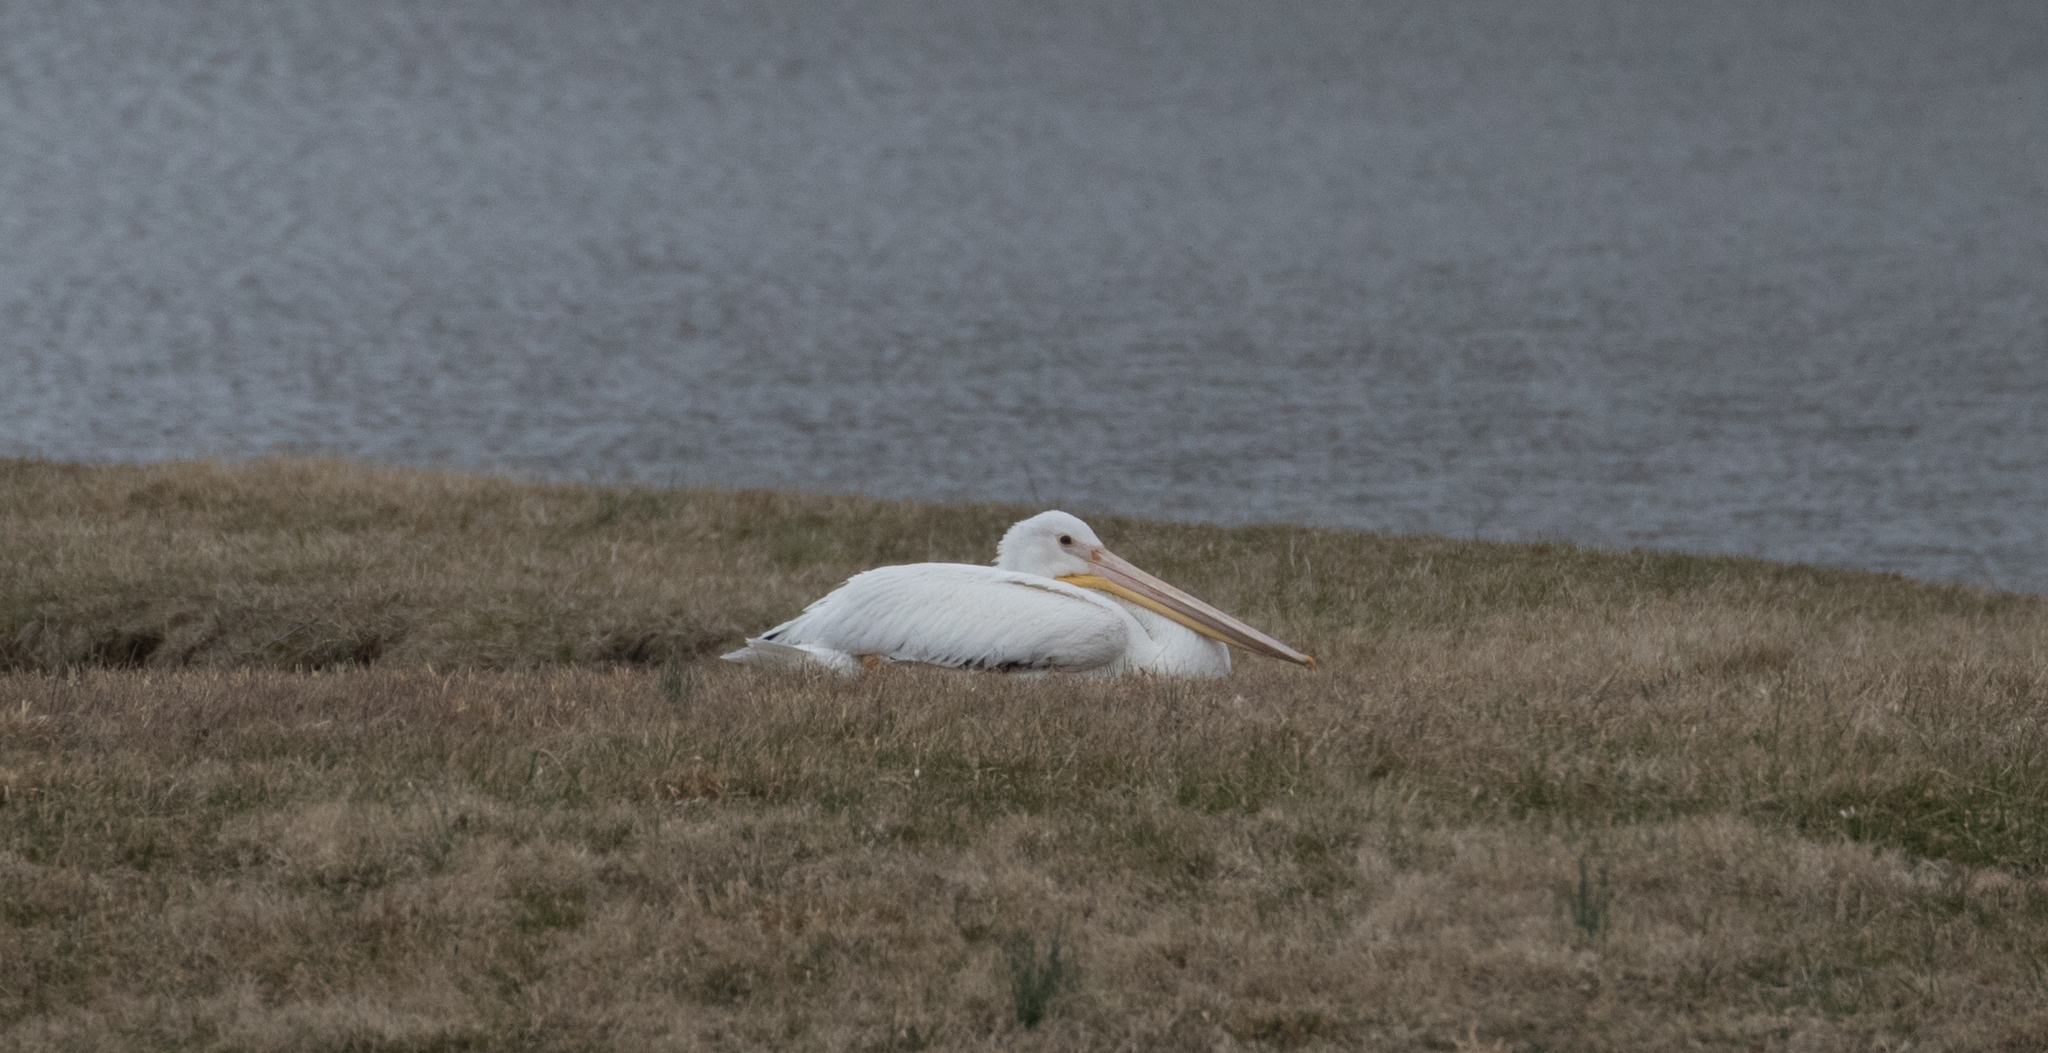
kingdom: Animalia
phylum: Chordata
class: Aves
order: Pelecaniformes
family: Pelecanidae
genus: Pelecanus
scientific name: Pelecanus erythrorhynchos
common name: American white pelican
